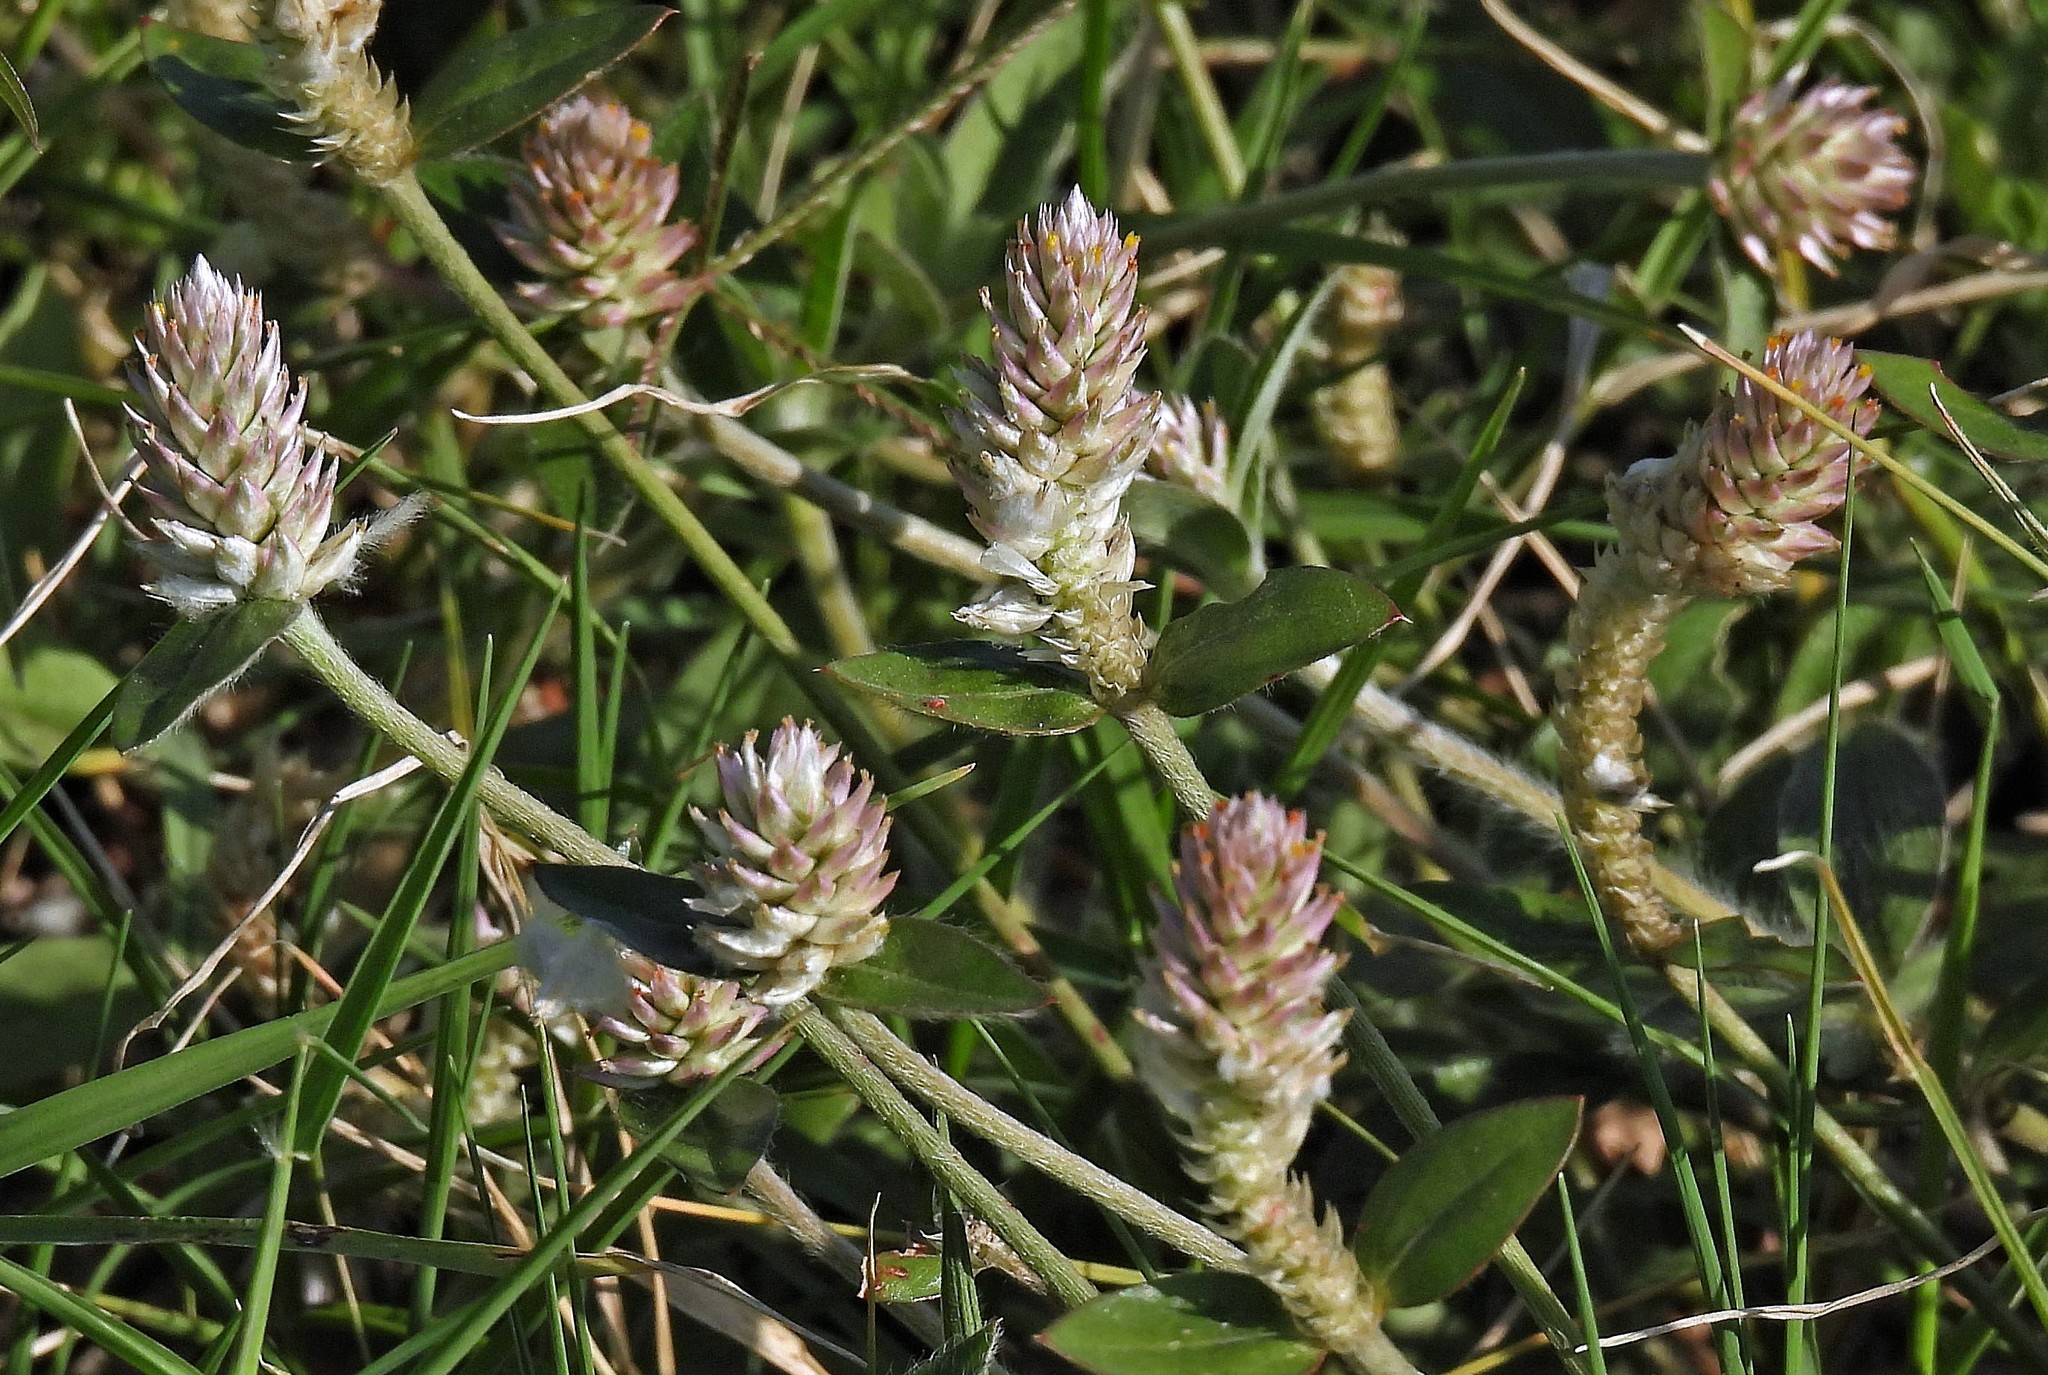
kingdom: Plantae
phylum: Tracheophyta
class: Magnoliopsida
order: Caryophyllales
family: Amaranthaceae
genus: Gomphrena
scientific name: Gomphrena celosioides
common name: Gomphrena-weed
